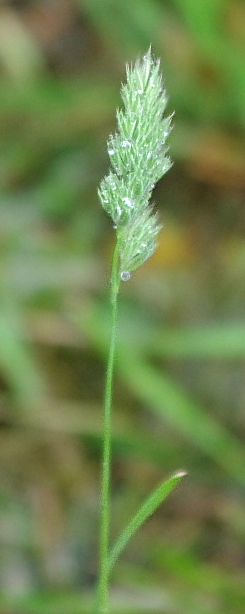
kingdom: Plantae
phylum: Tracheophyta
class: Liliopsida
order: Poales
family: Poaceae
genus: Dactylis
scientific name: Dactylis glomerata
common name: Orchardgrass
